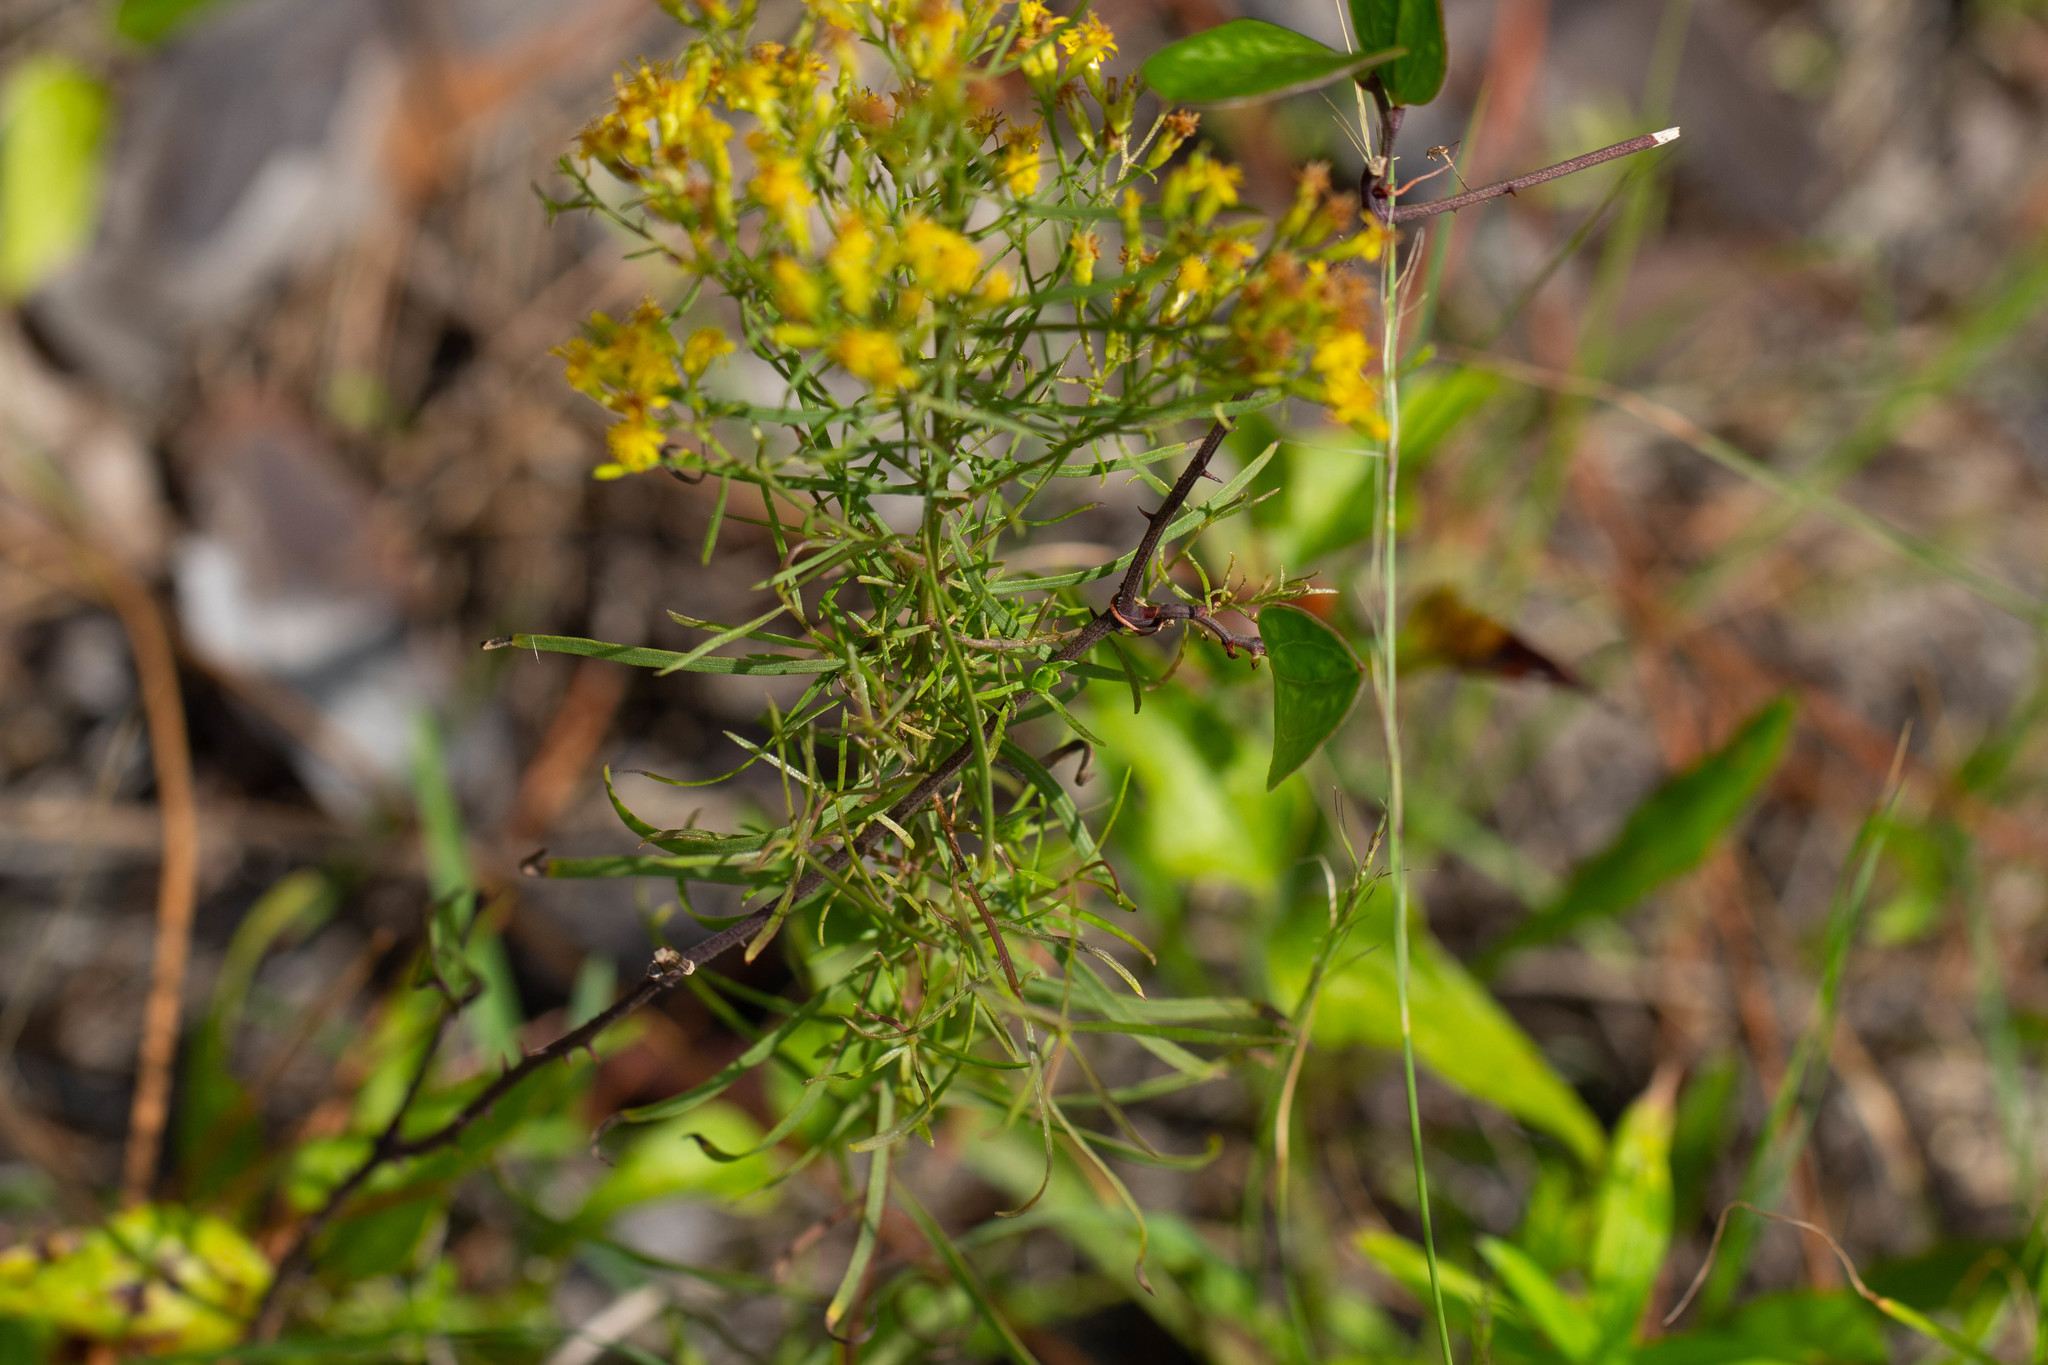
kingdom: Plantae
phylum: Tracheophyta
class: Magnoliopsida
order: Asterales
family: Asteraceae
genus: Euthamia
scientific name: Euthamia caroliniana
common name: Coastal plain goldentop
